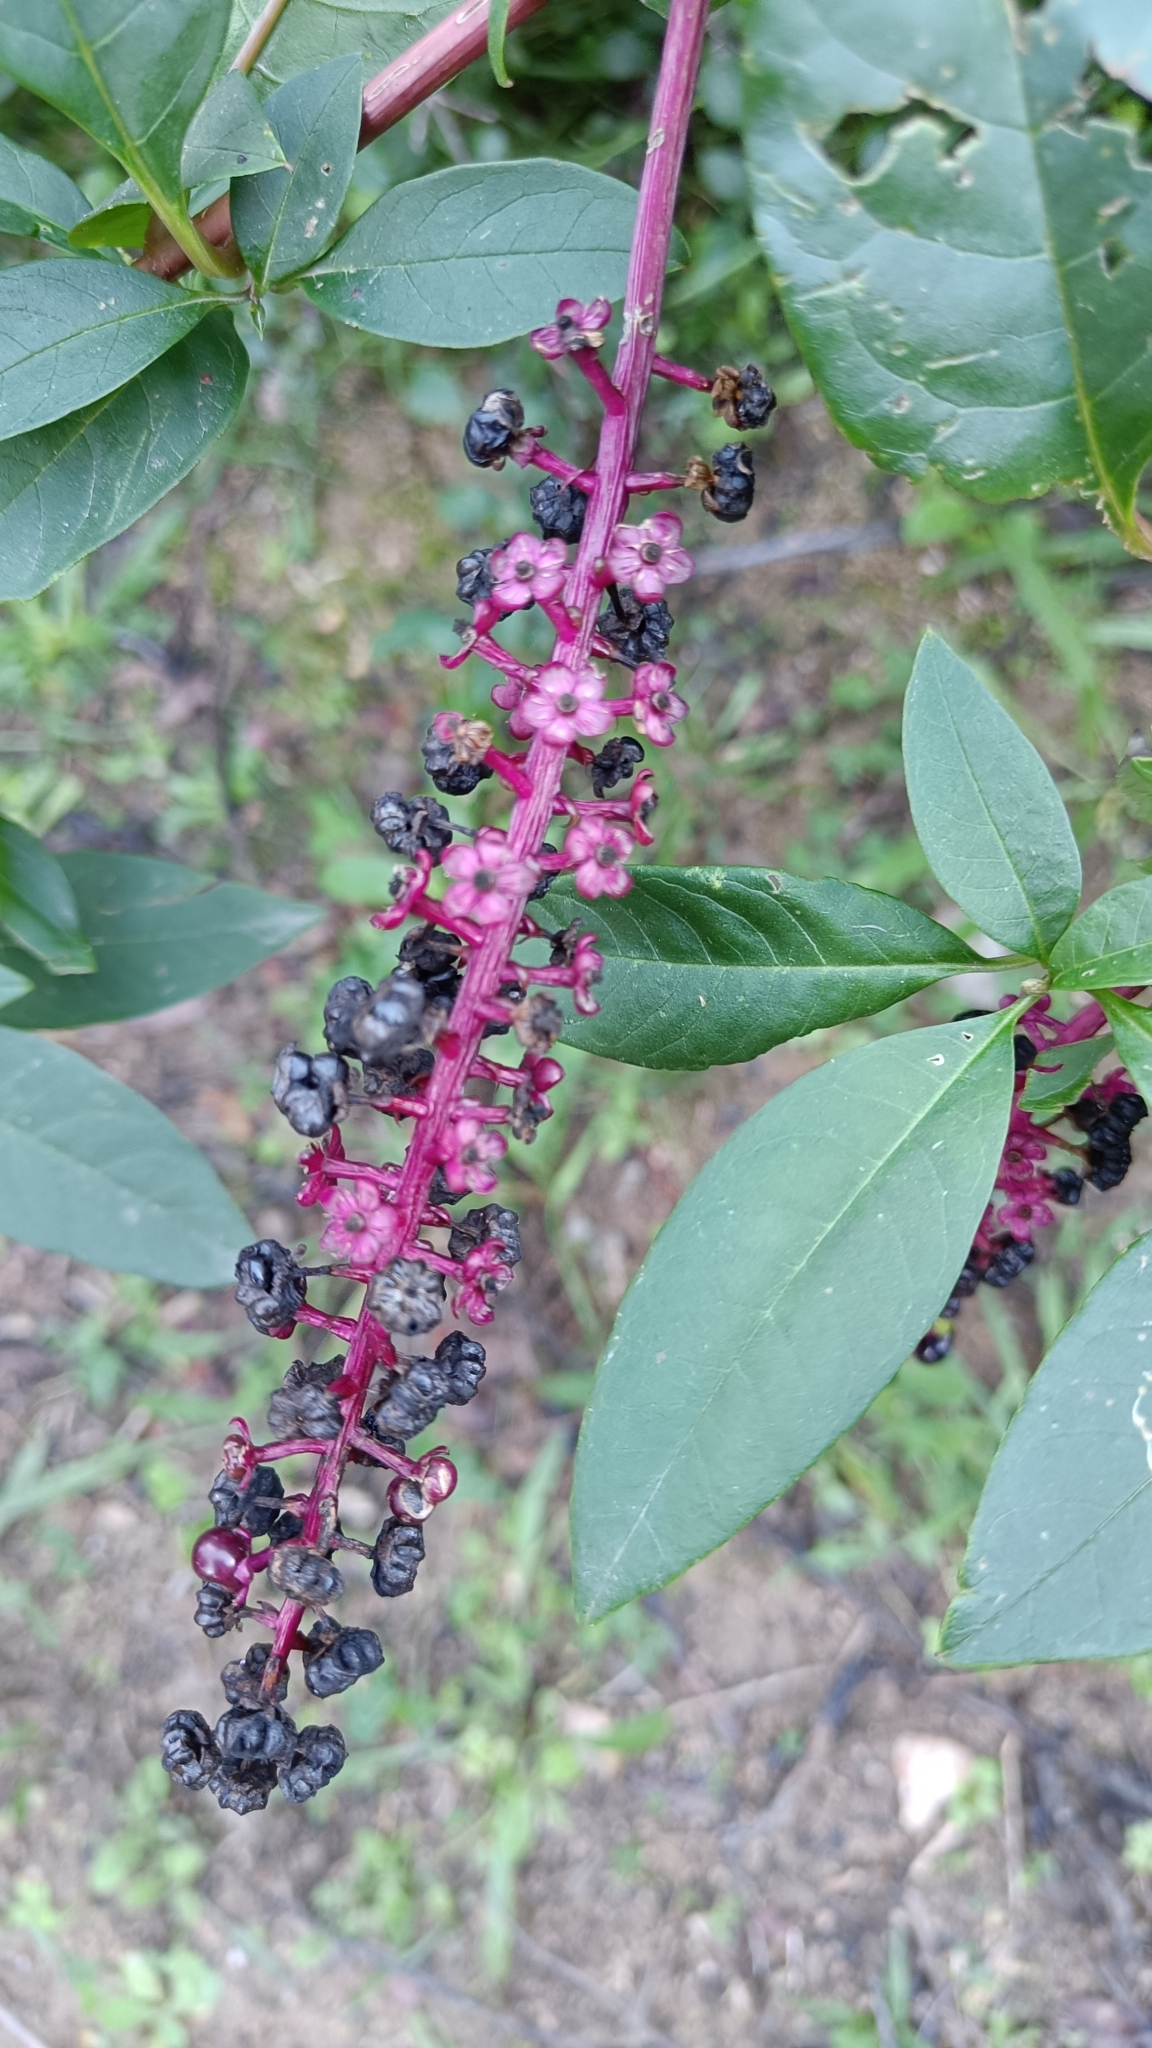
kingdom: Plantae
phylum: Tracheophyta
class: Magnoliopsida
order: Caryophyllales
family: Phytolaccaceae
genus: Phytolacca
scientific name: Phytolacca americana
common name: American pokeweed
